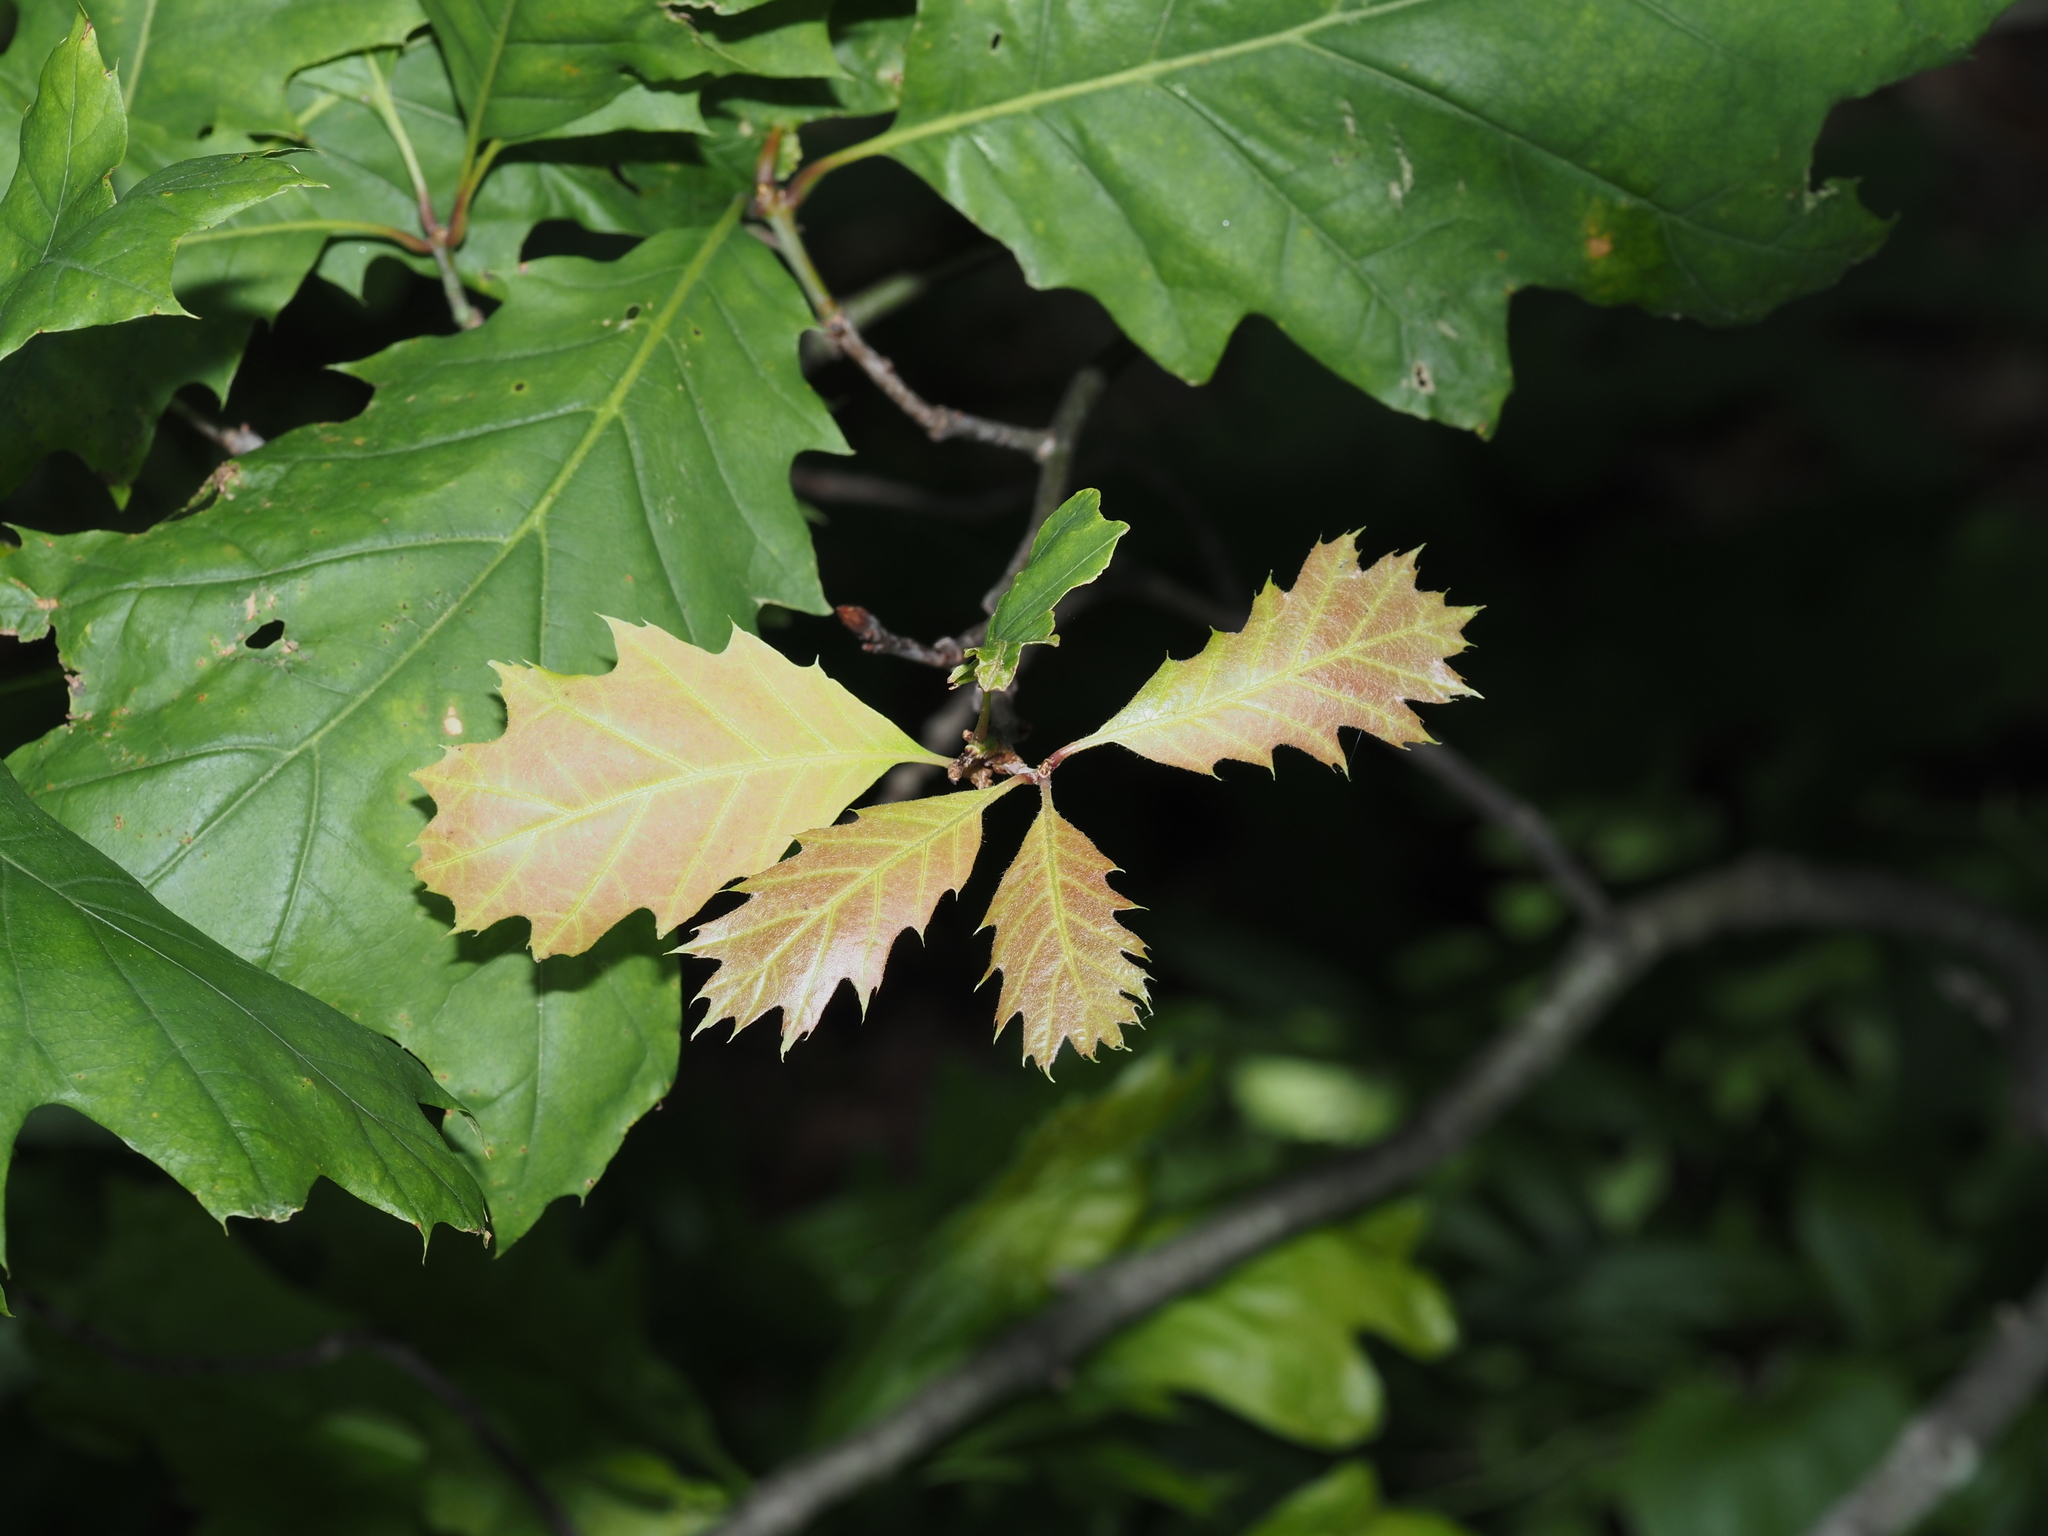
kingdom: Plantae
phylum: Tracheophyta
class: Magnoliopsida
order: Fagales
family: Fagaceae
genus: Quercus
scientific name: Quercus rubra
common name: Red oak
